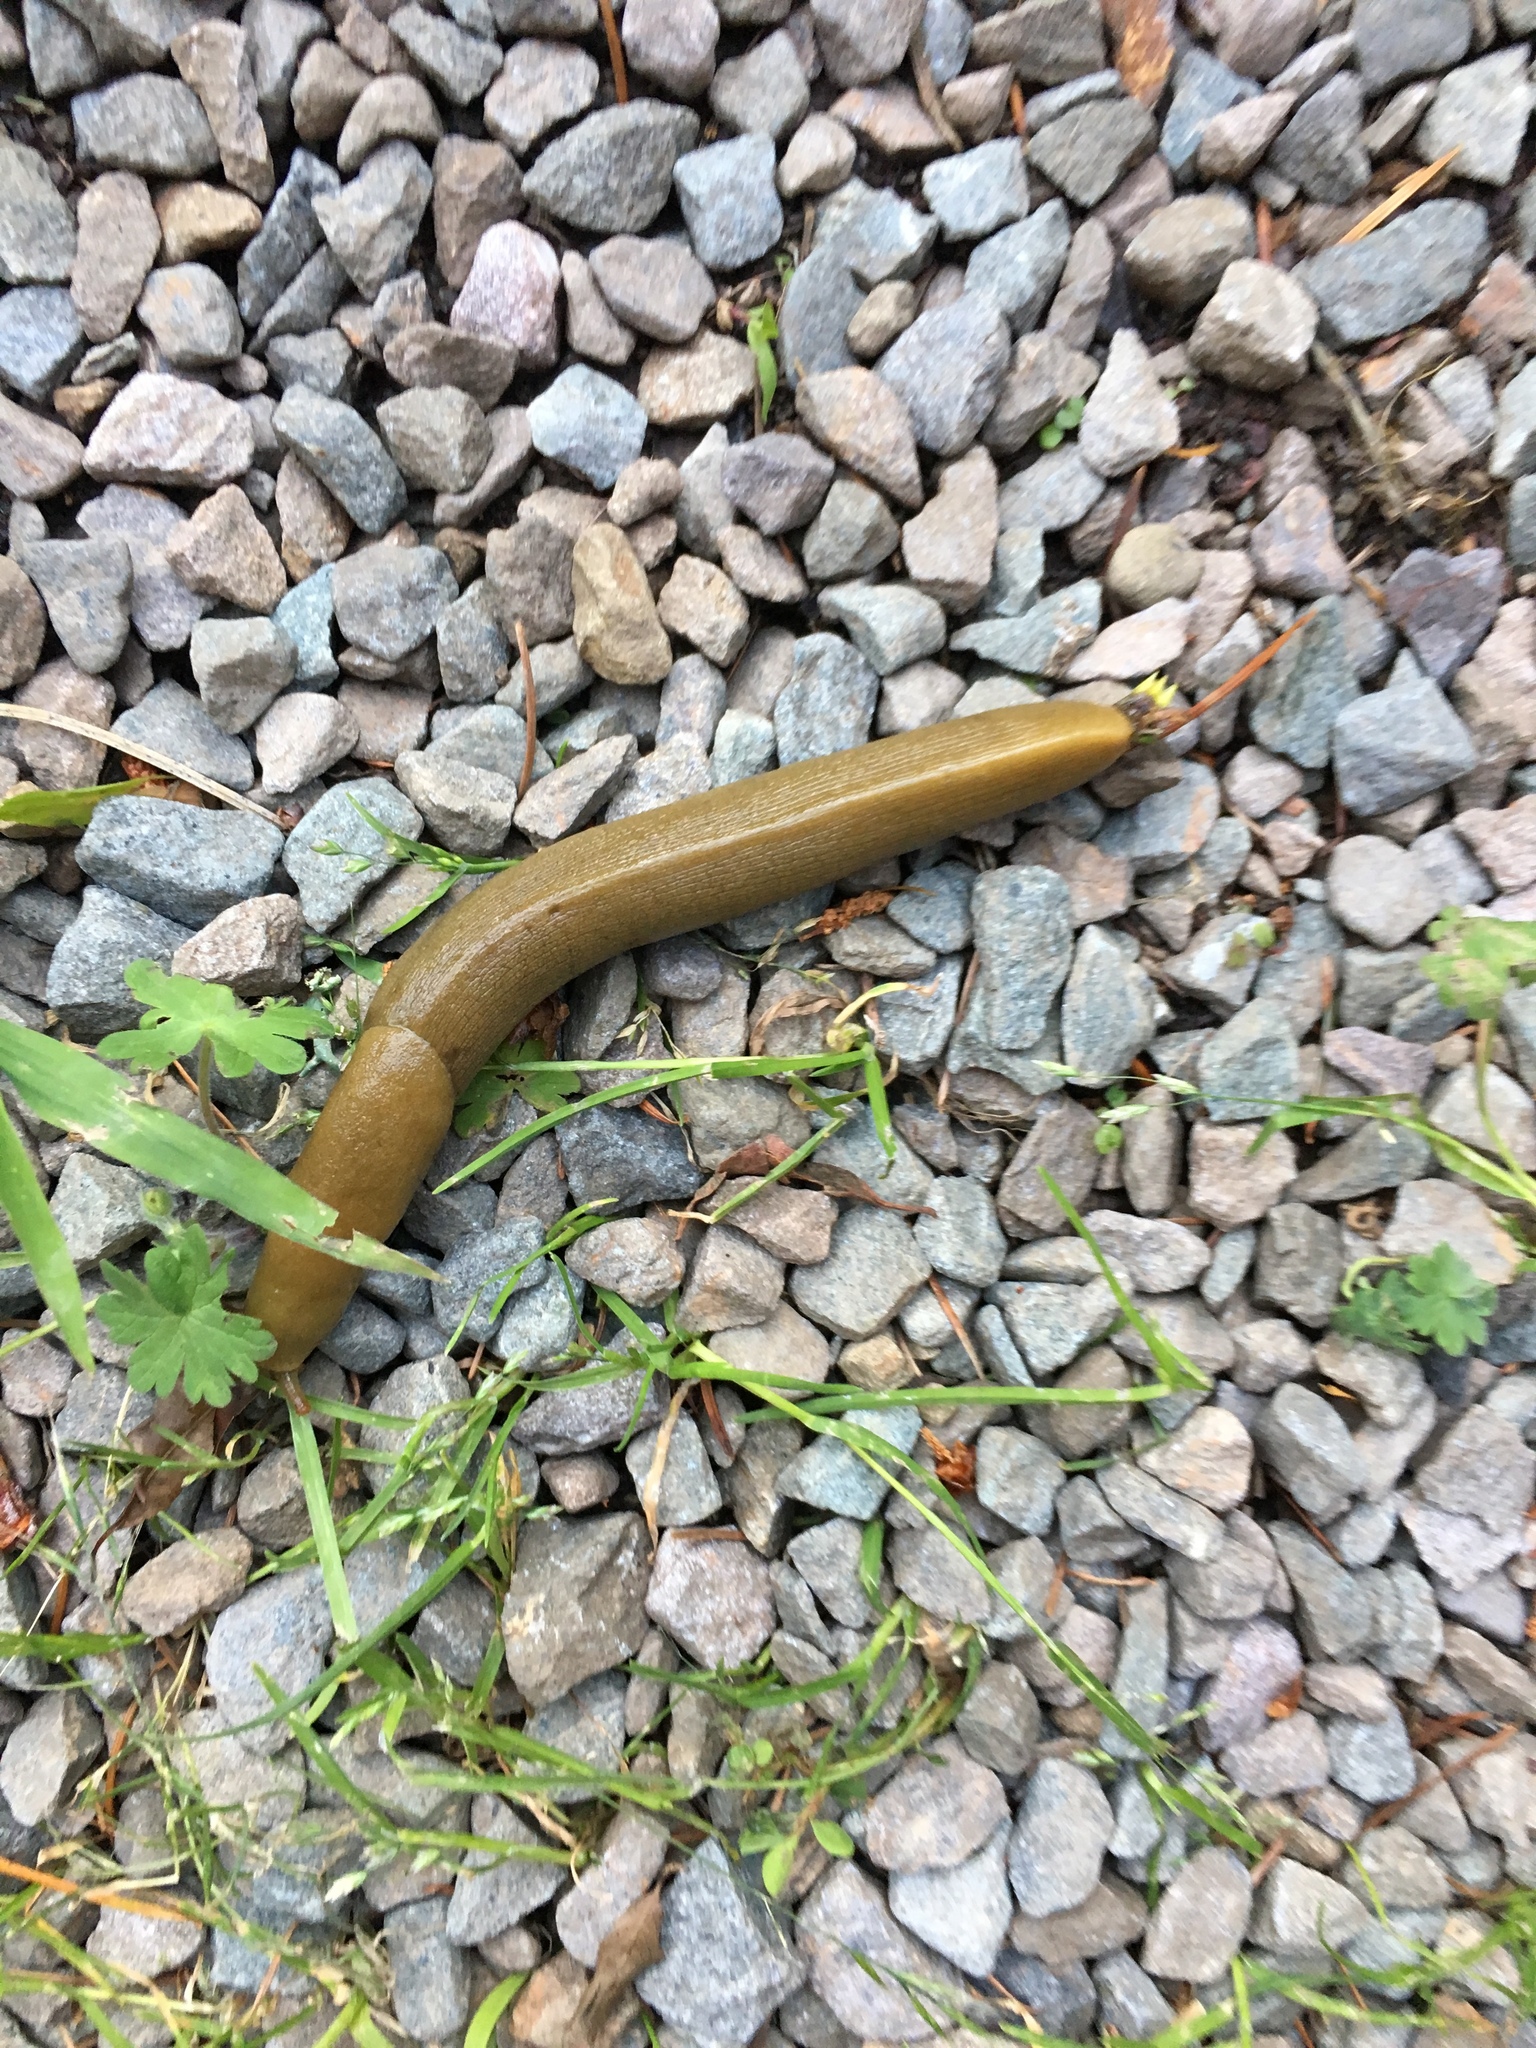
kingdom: Animalia
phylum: Mollusca
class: Gastropoda
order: Stylommatophora
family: Ariolimacidae
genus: Ariolimax
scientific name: Ariolimax buttoni
